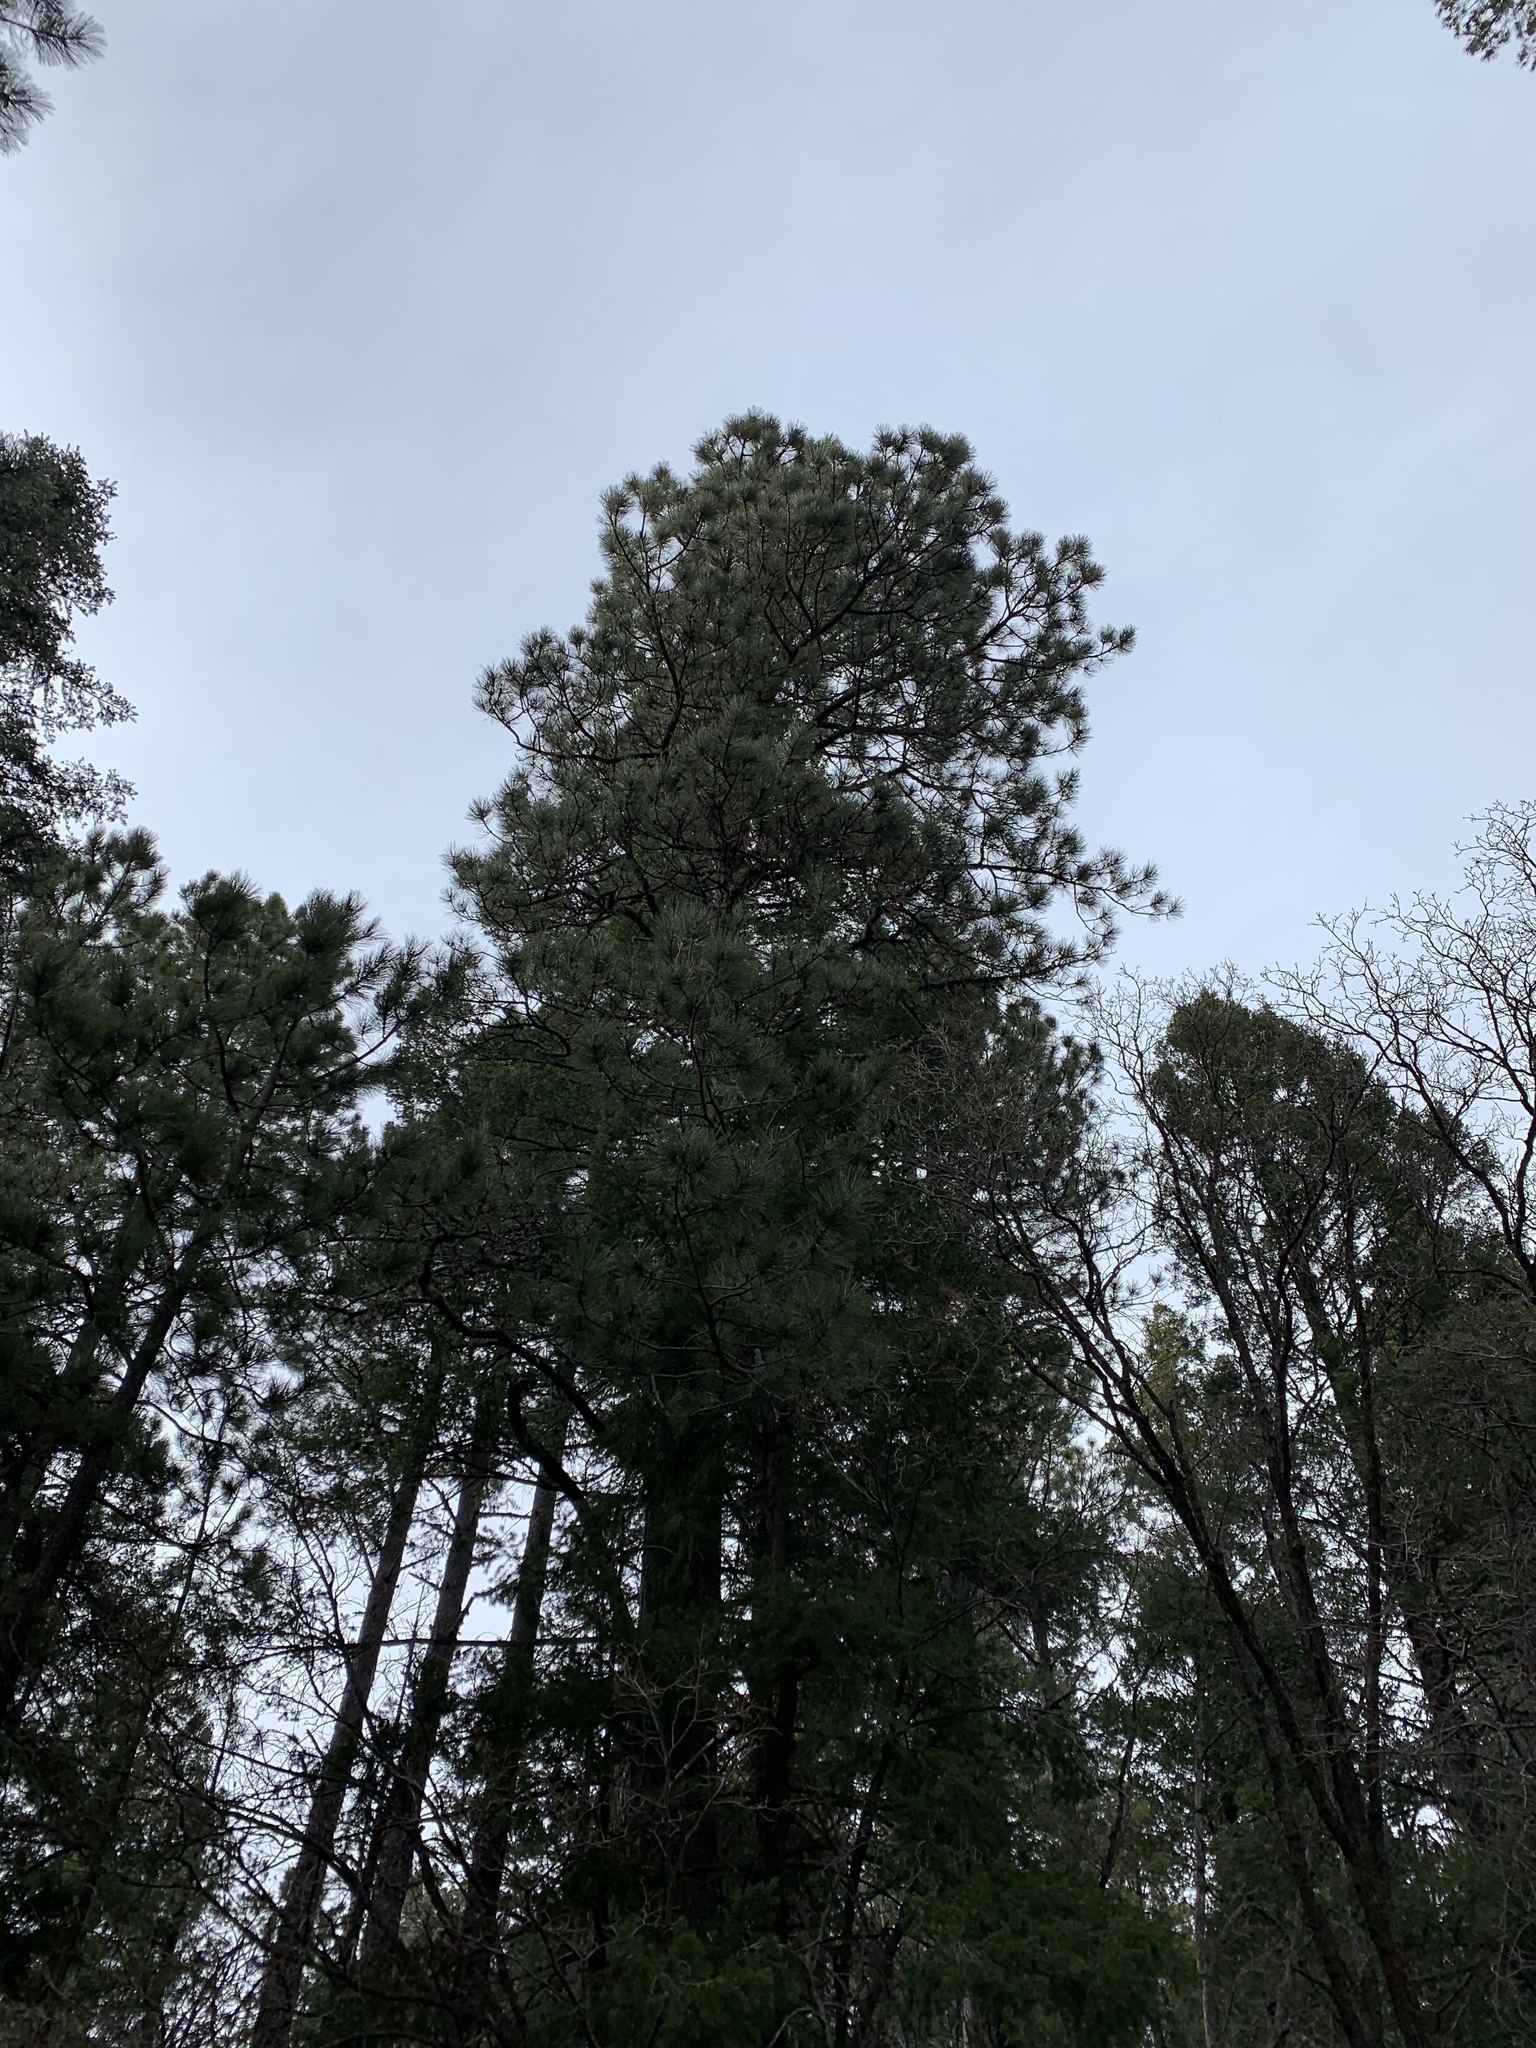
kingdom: Plantae
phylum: Tracheophyta
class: Pinopsida
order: Pinales
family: Pinaceae
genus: Pinus
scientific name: Pinus ponderosa
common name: Western yellow-pine
